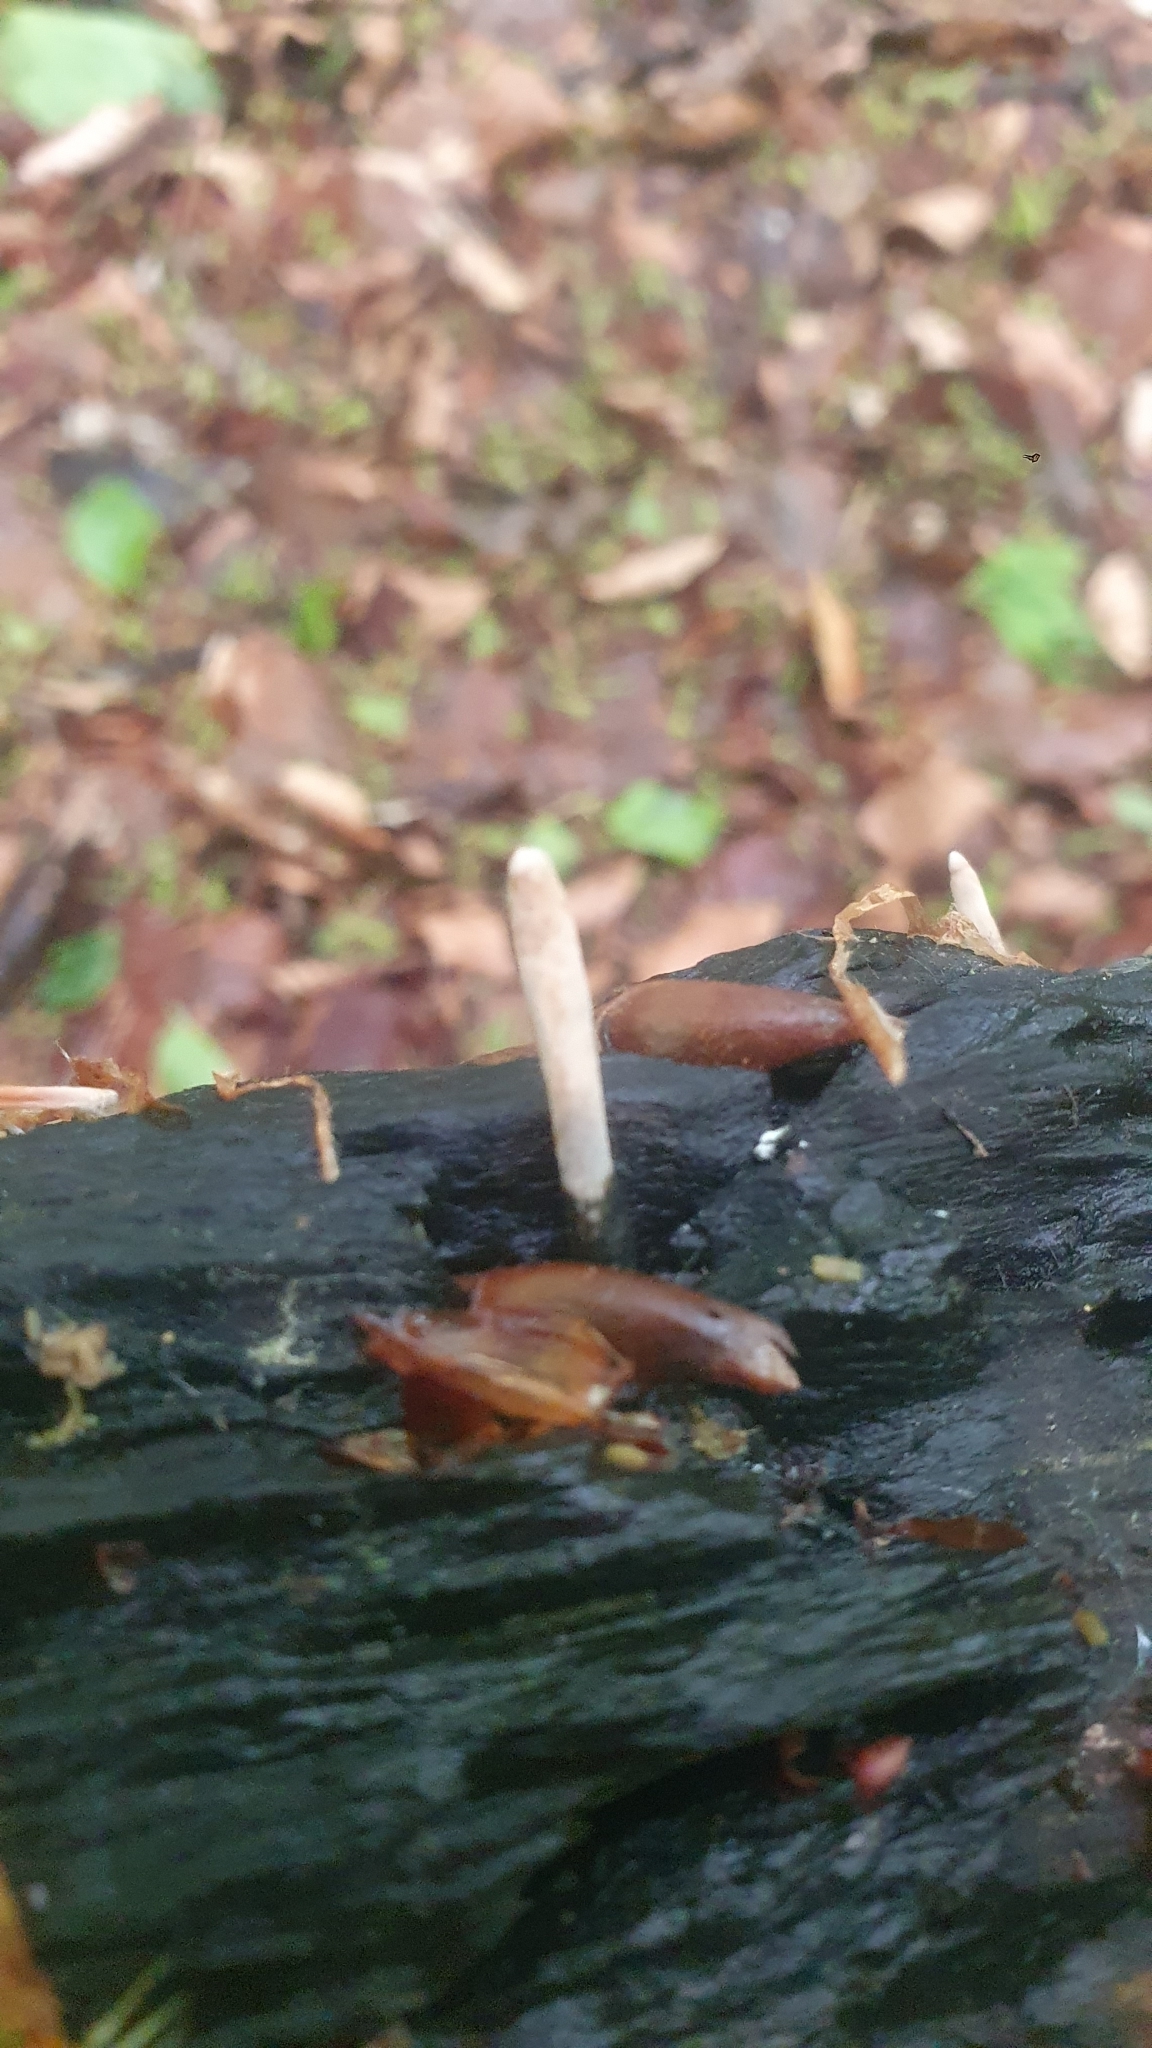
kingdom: Fungi
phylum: Ascomycota
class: Sordariomycetes
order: Xylariales
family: Xylariaceae
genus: Xylaria
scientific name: Xylaria polymorpha
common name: Dead man's fingers
